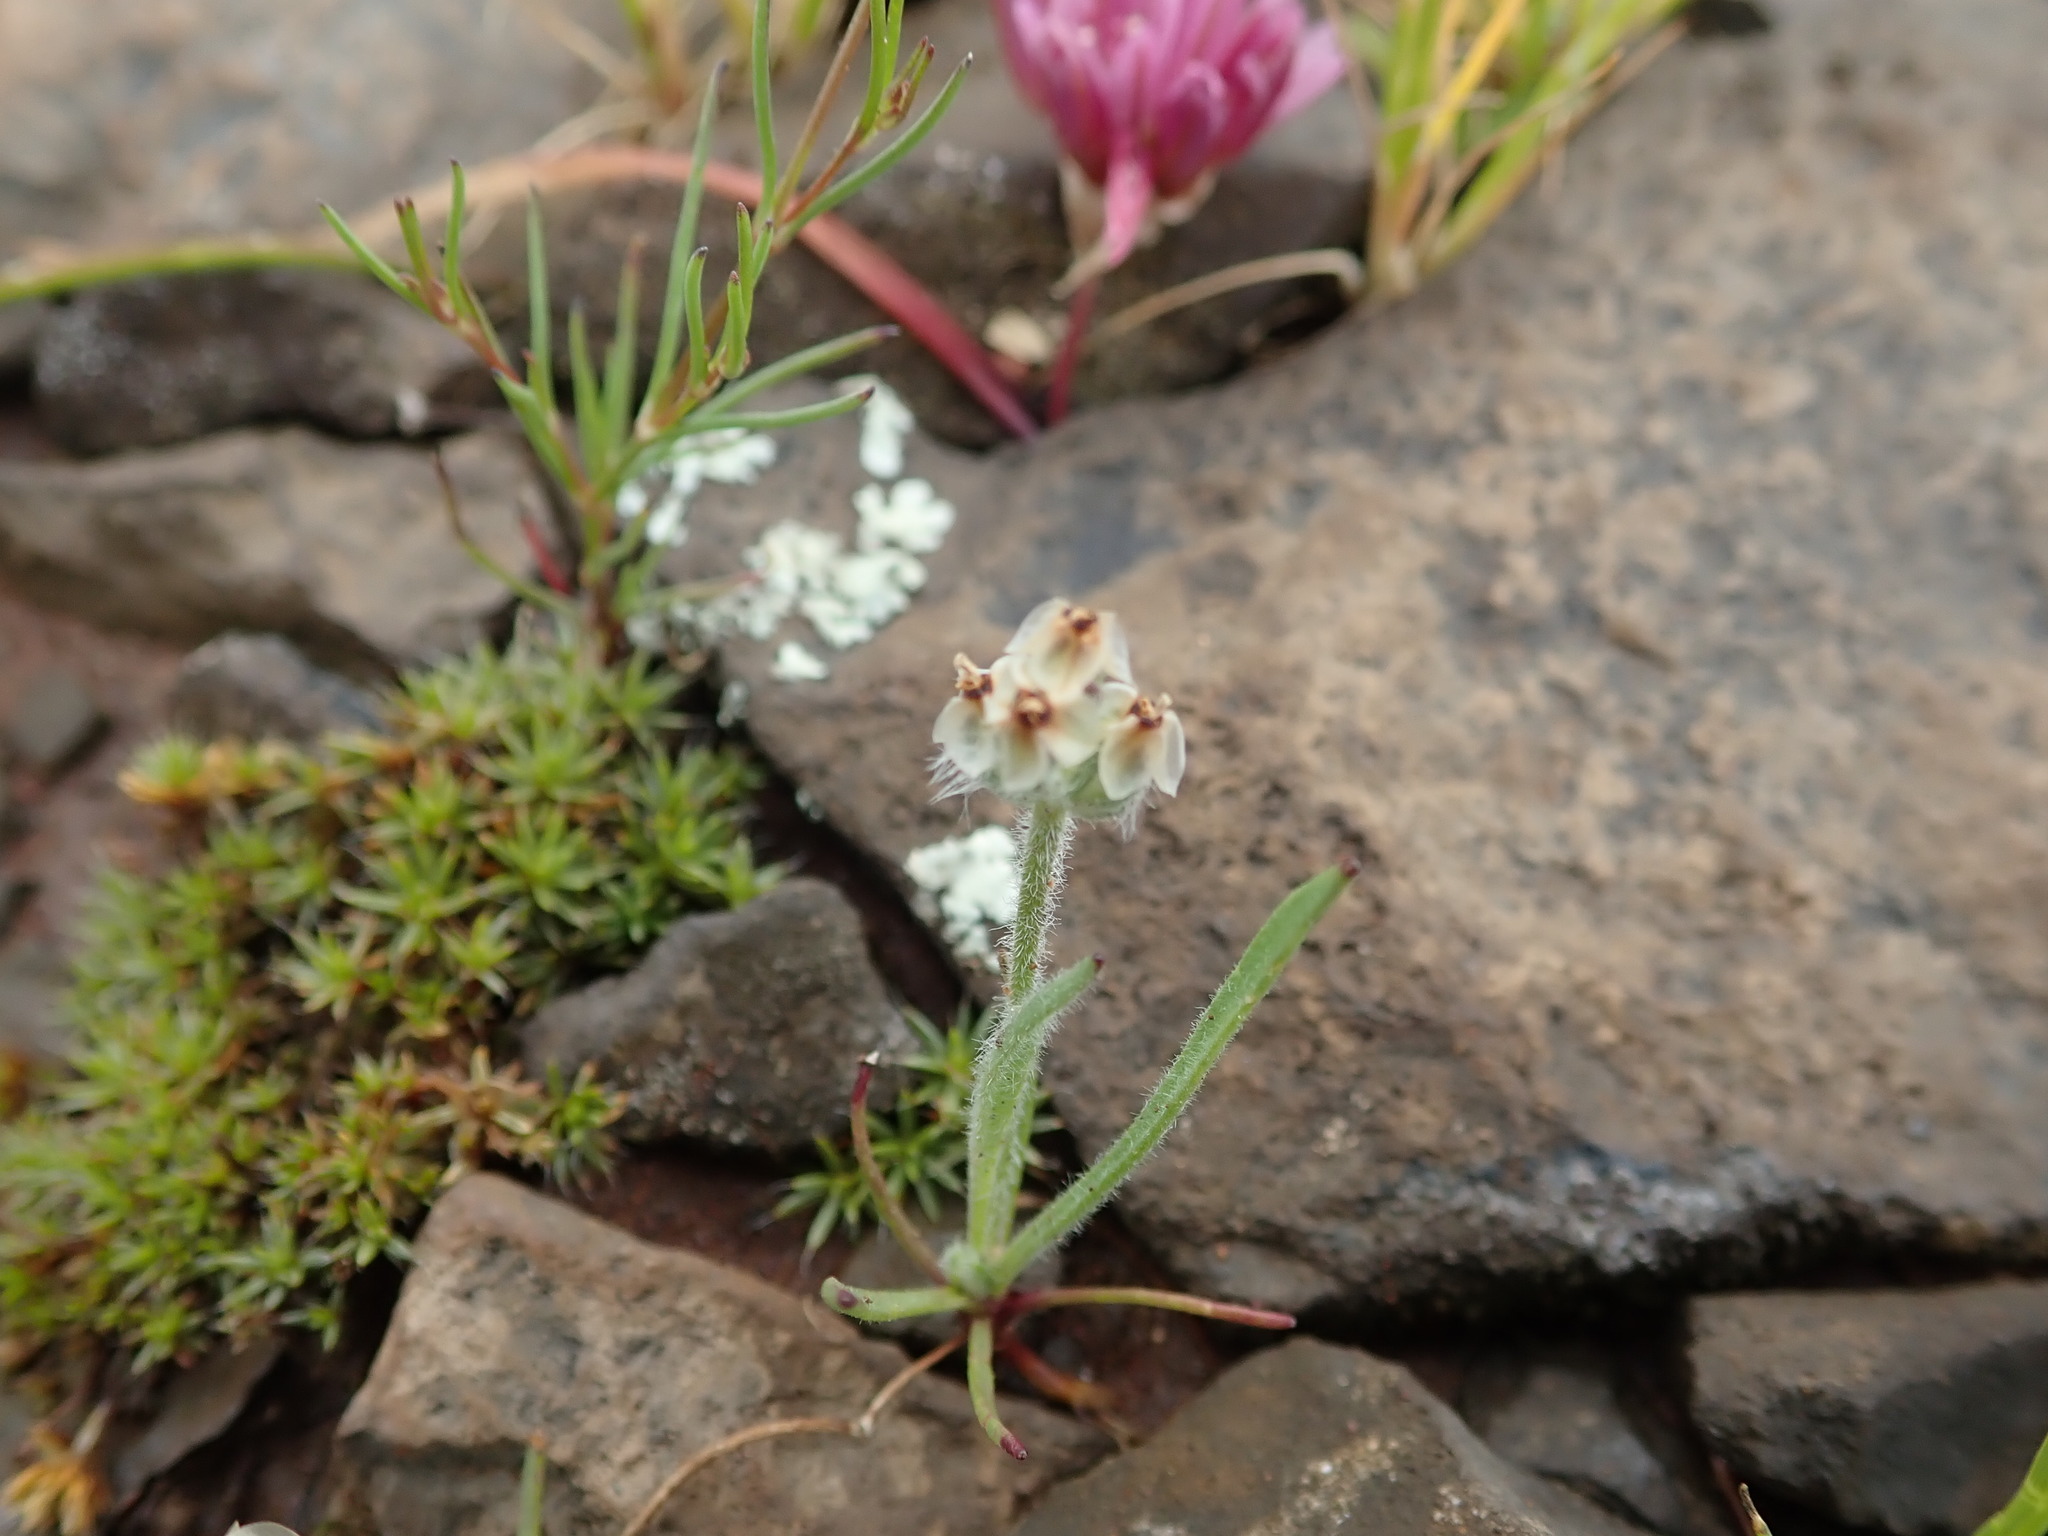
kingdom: Plantae
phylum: Tracheophyta
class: Magnoliopsida
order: Lamiales
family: Plantaginaceae
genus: Plantago
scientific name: Plantago erecta
